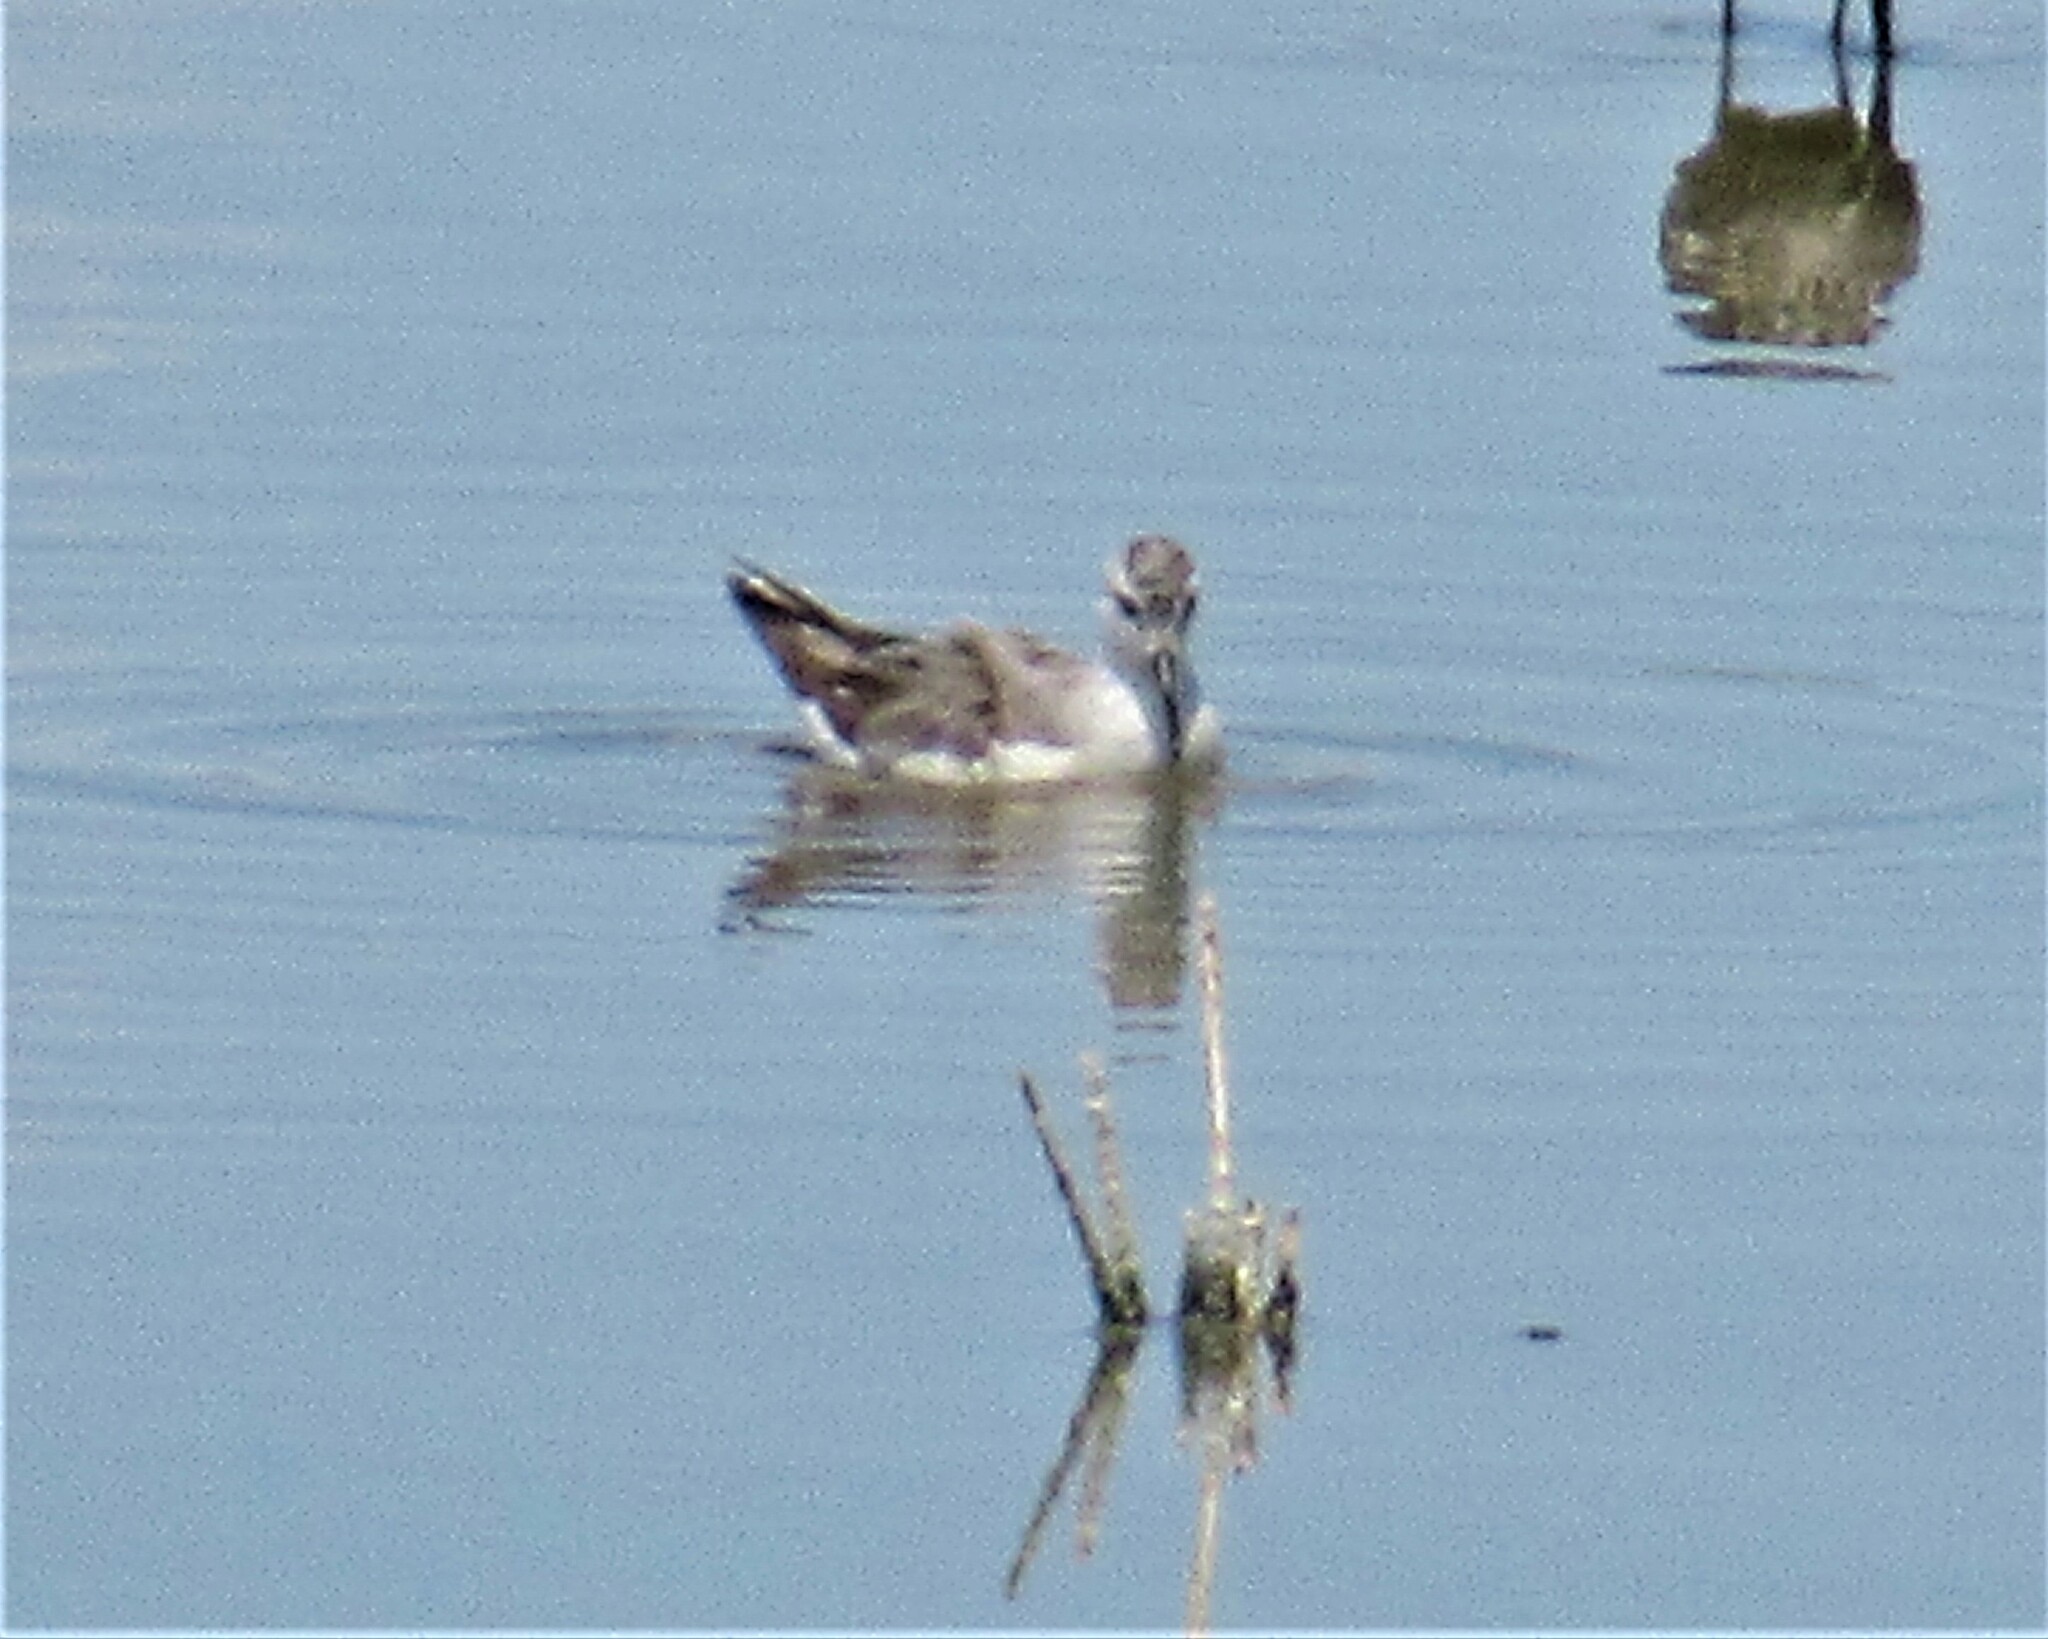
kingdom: Animalia
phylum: Chordata
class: Aves
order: Charadriiformes
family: Scolopacidae
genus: Phalaropus
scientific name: Phalaropus tricolor
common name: Wilson's phalarope
